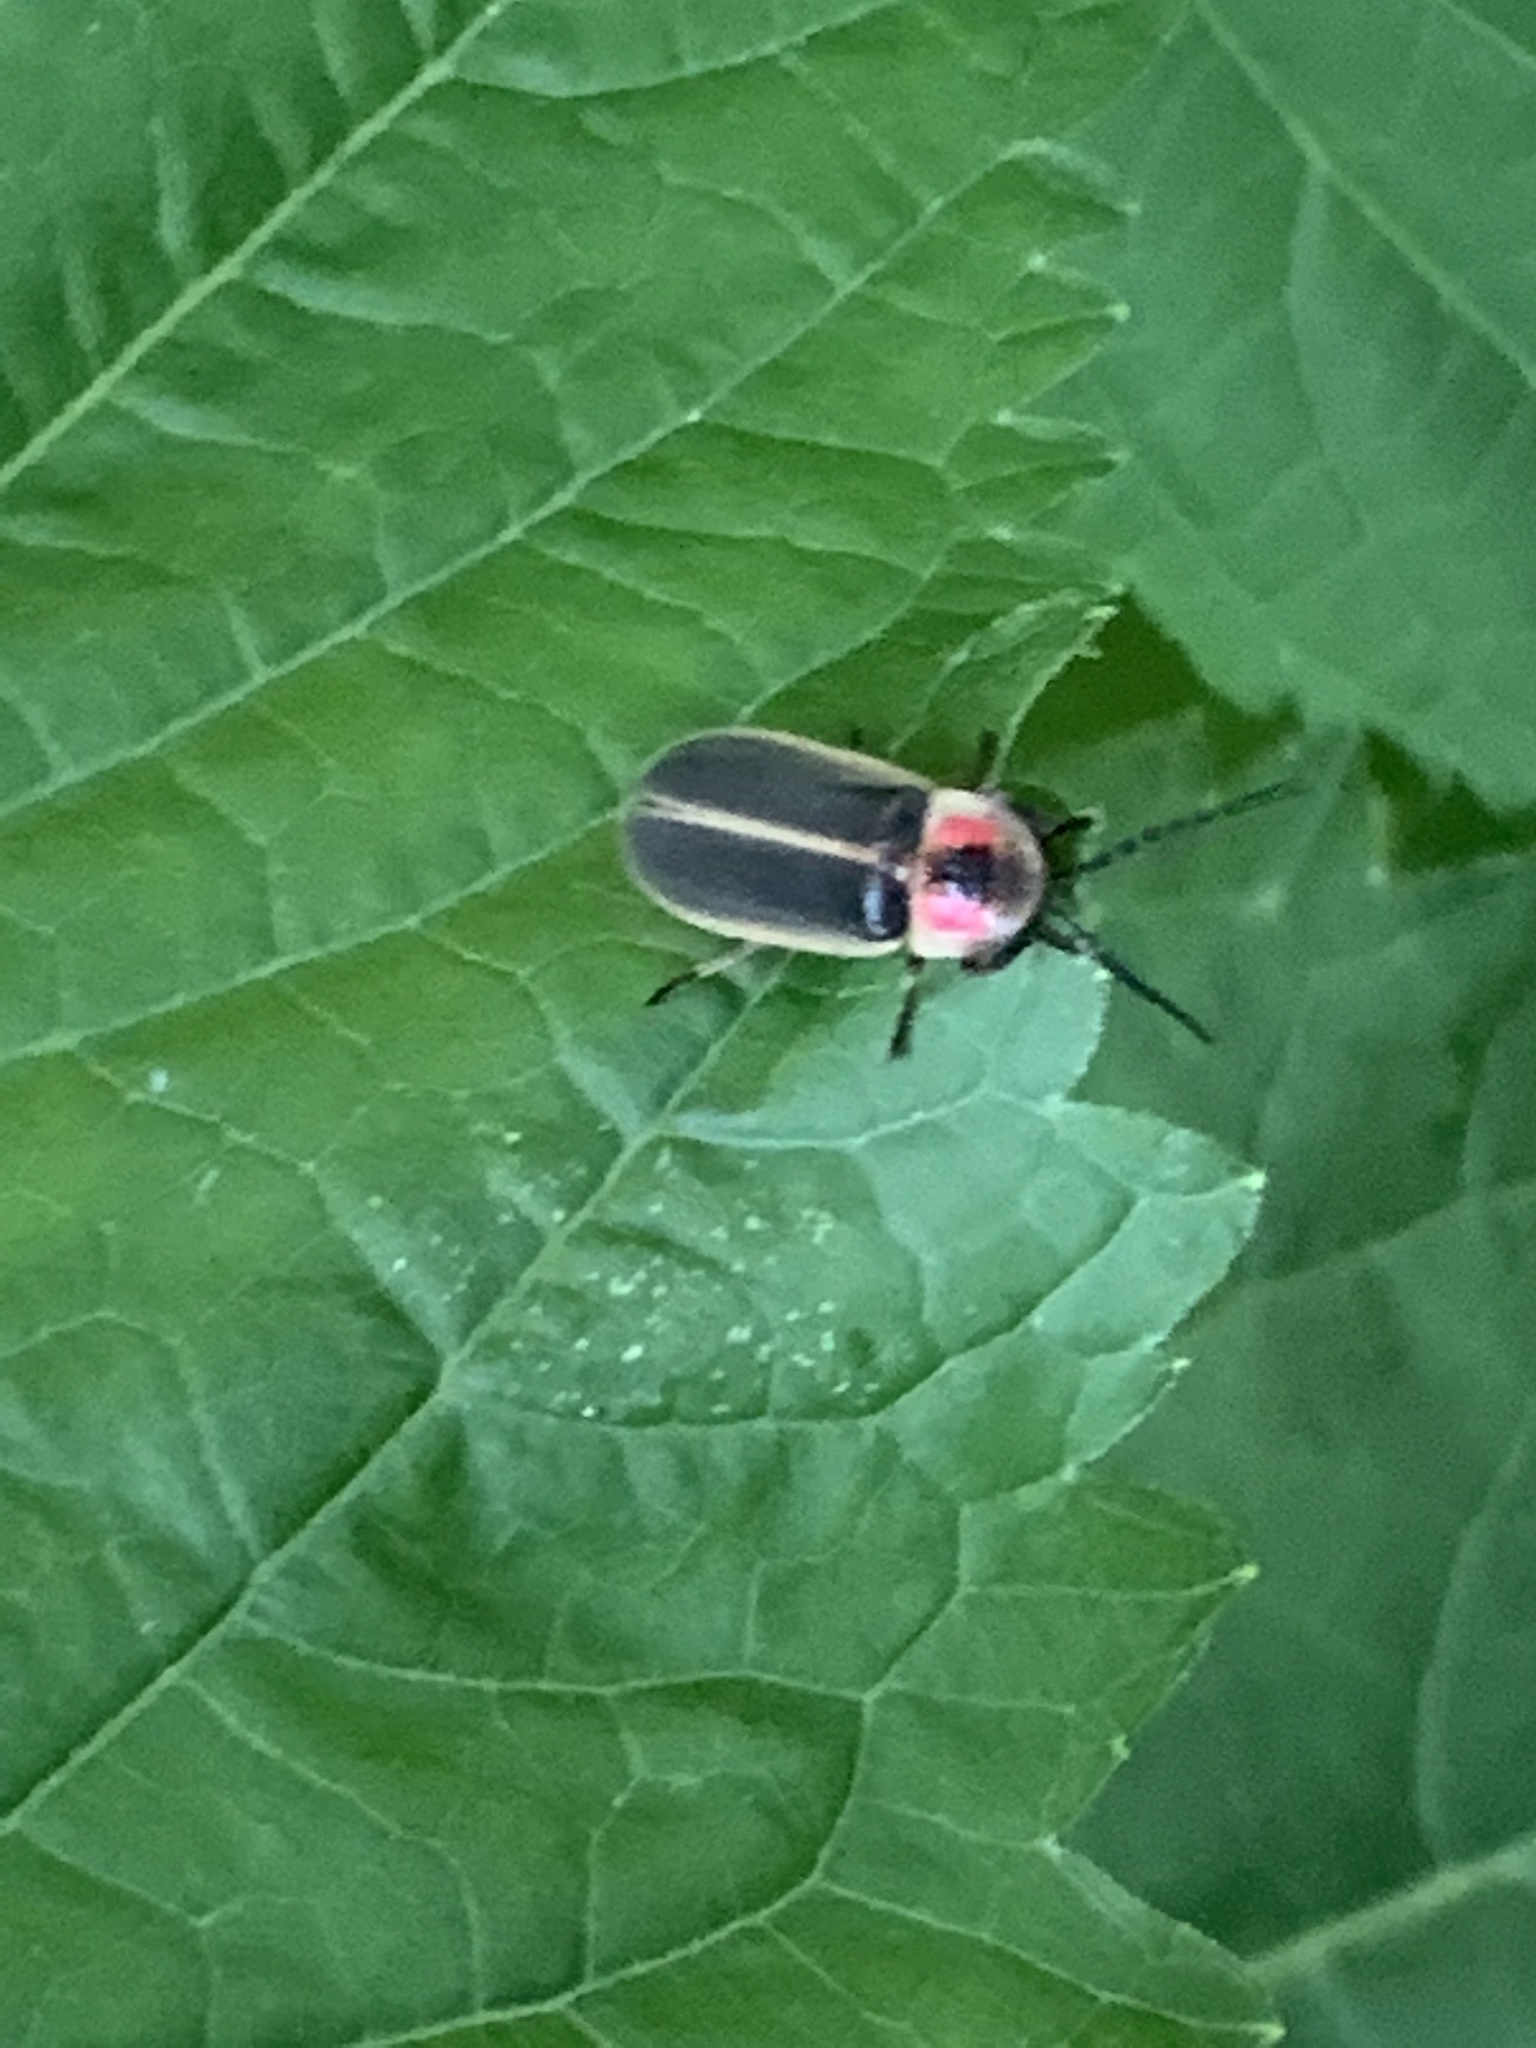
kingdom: Animalia
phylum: Arthropoda
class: Insecta
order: Coleoptera
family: Lampyridae
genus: Photinus
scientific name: Photinus pyralis
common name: Big dipper firefly
